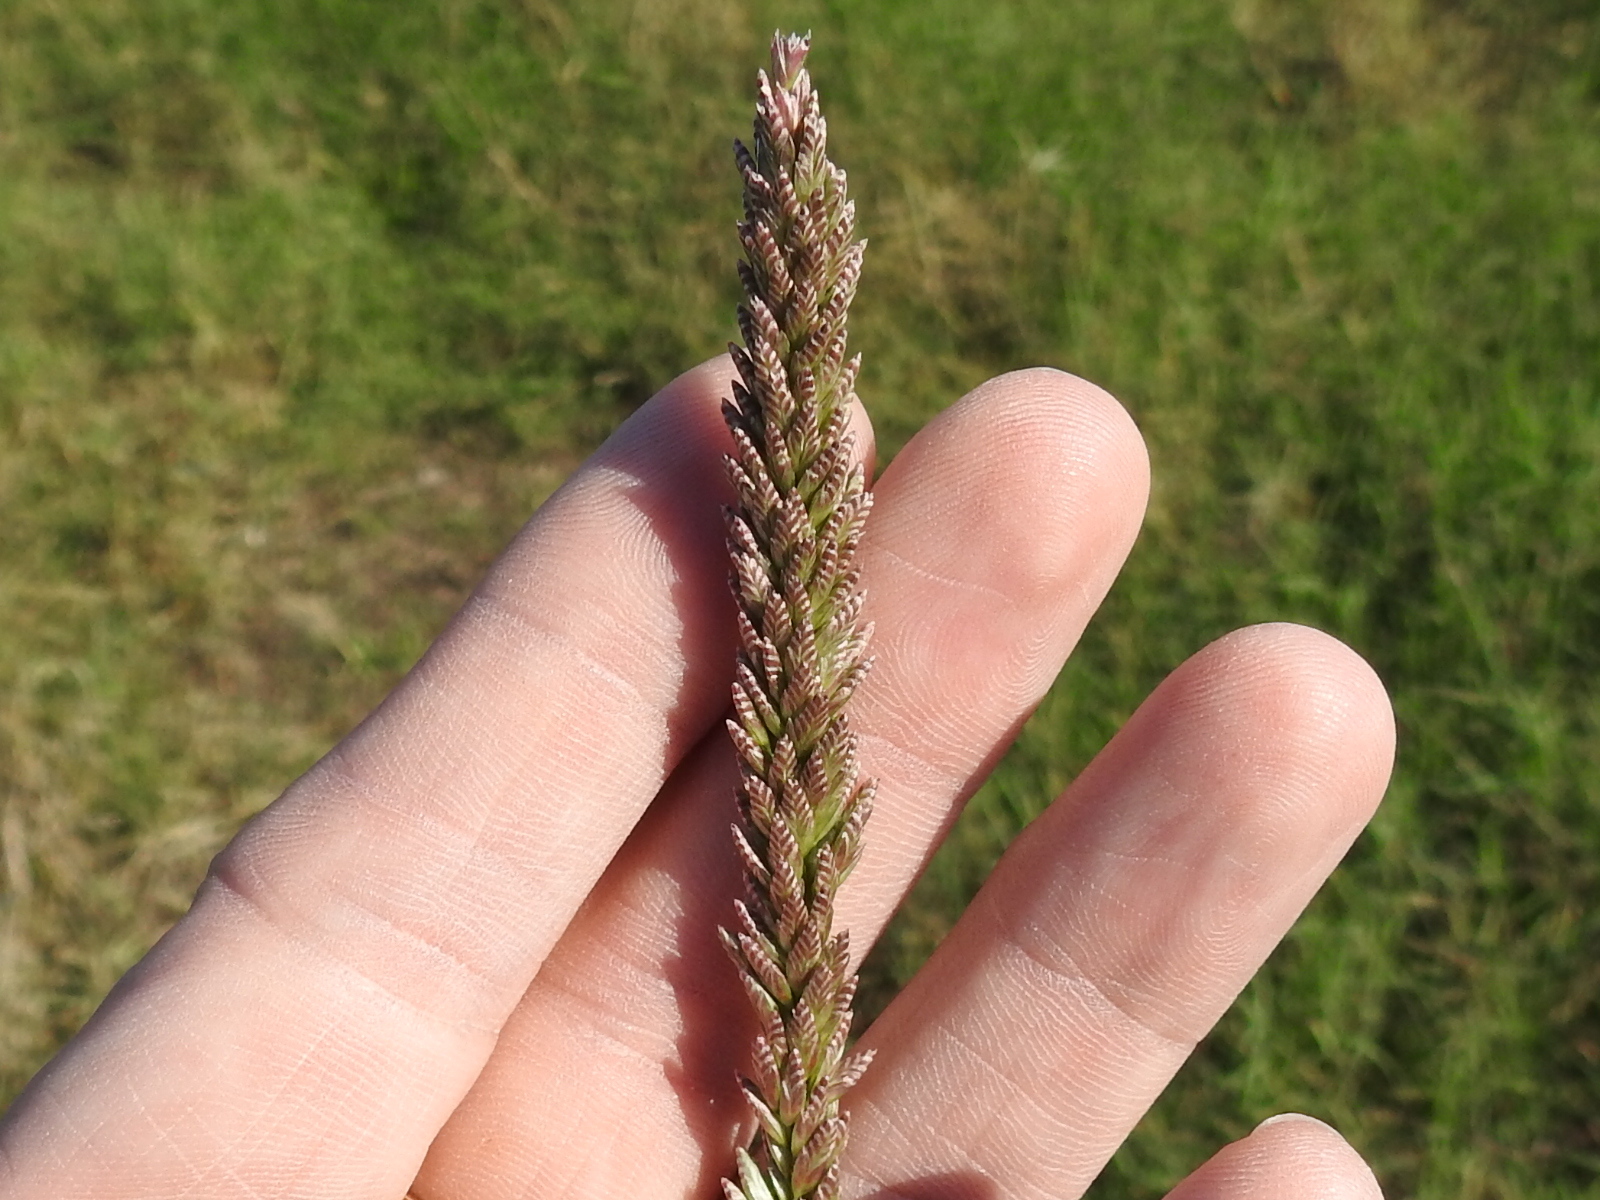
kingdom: Plantae
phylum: Tracheophyta
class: Liliopsida
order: Poales
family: Poaceae
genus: Tridens
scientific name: Tridens albescens
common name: White tridens
